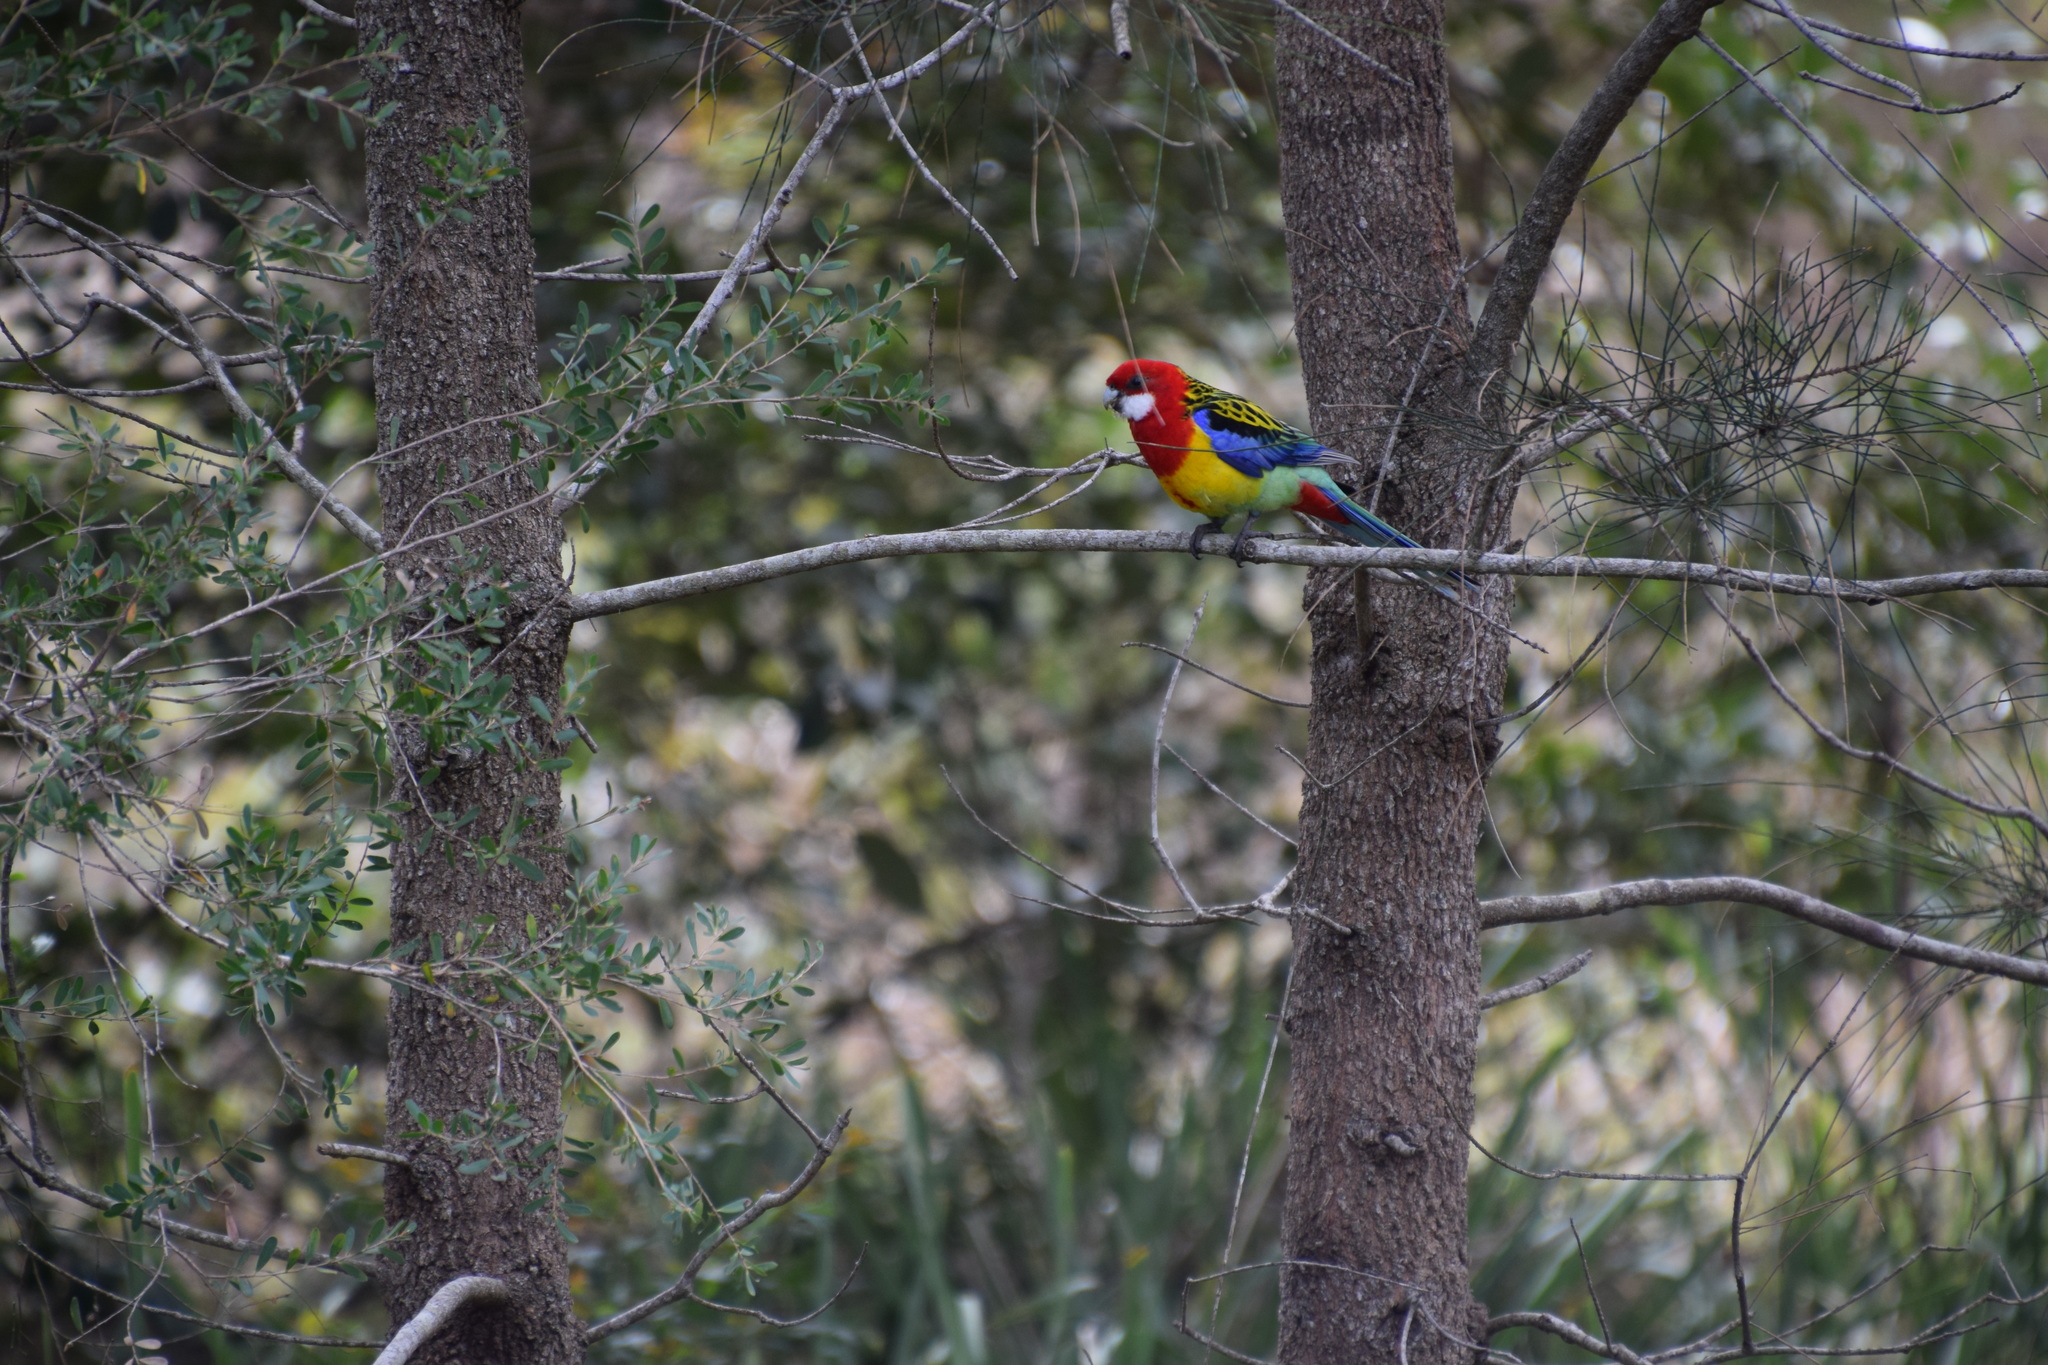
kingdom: Animalia
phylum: Chordata
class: Aves
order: Psittaciformes
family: Psittacidae
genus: Platycercus
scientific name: Platycercus eximius
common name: Eastern rosella
